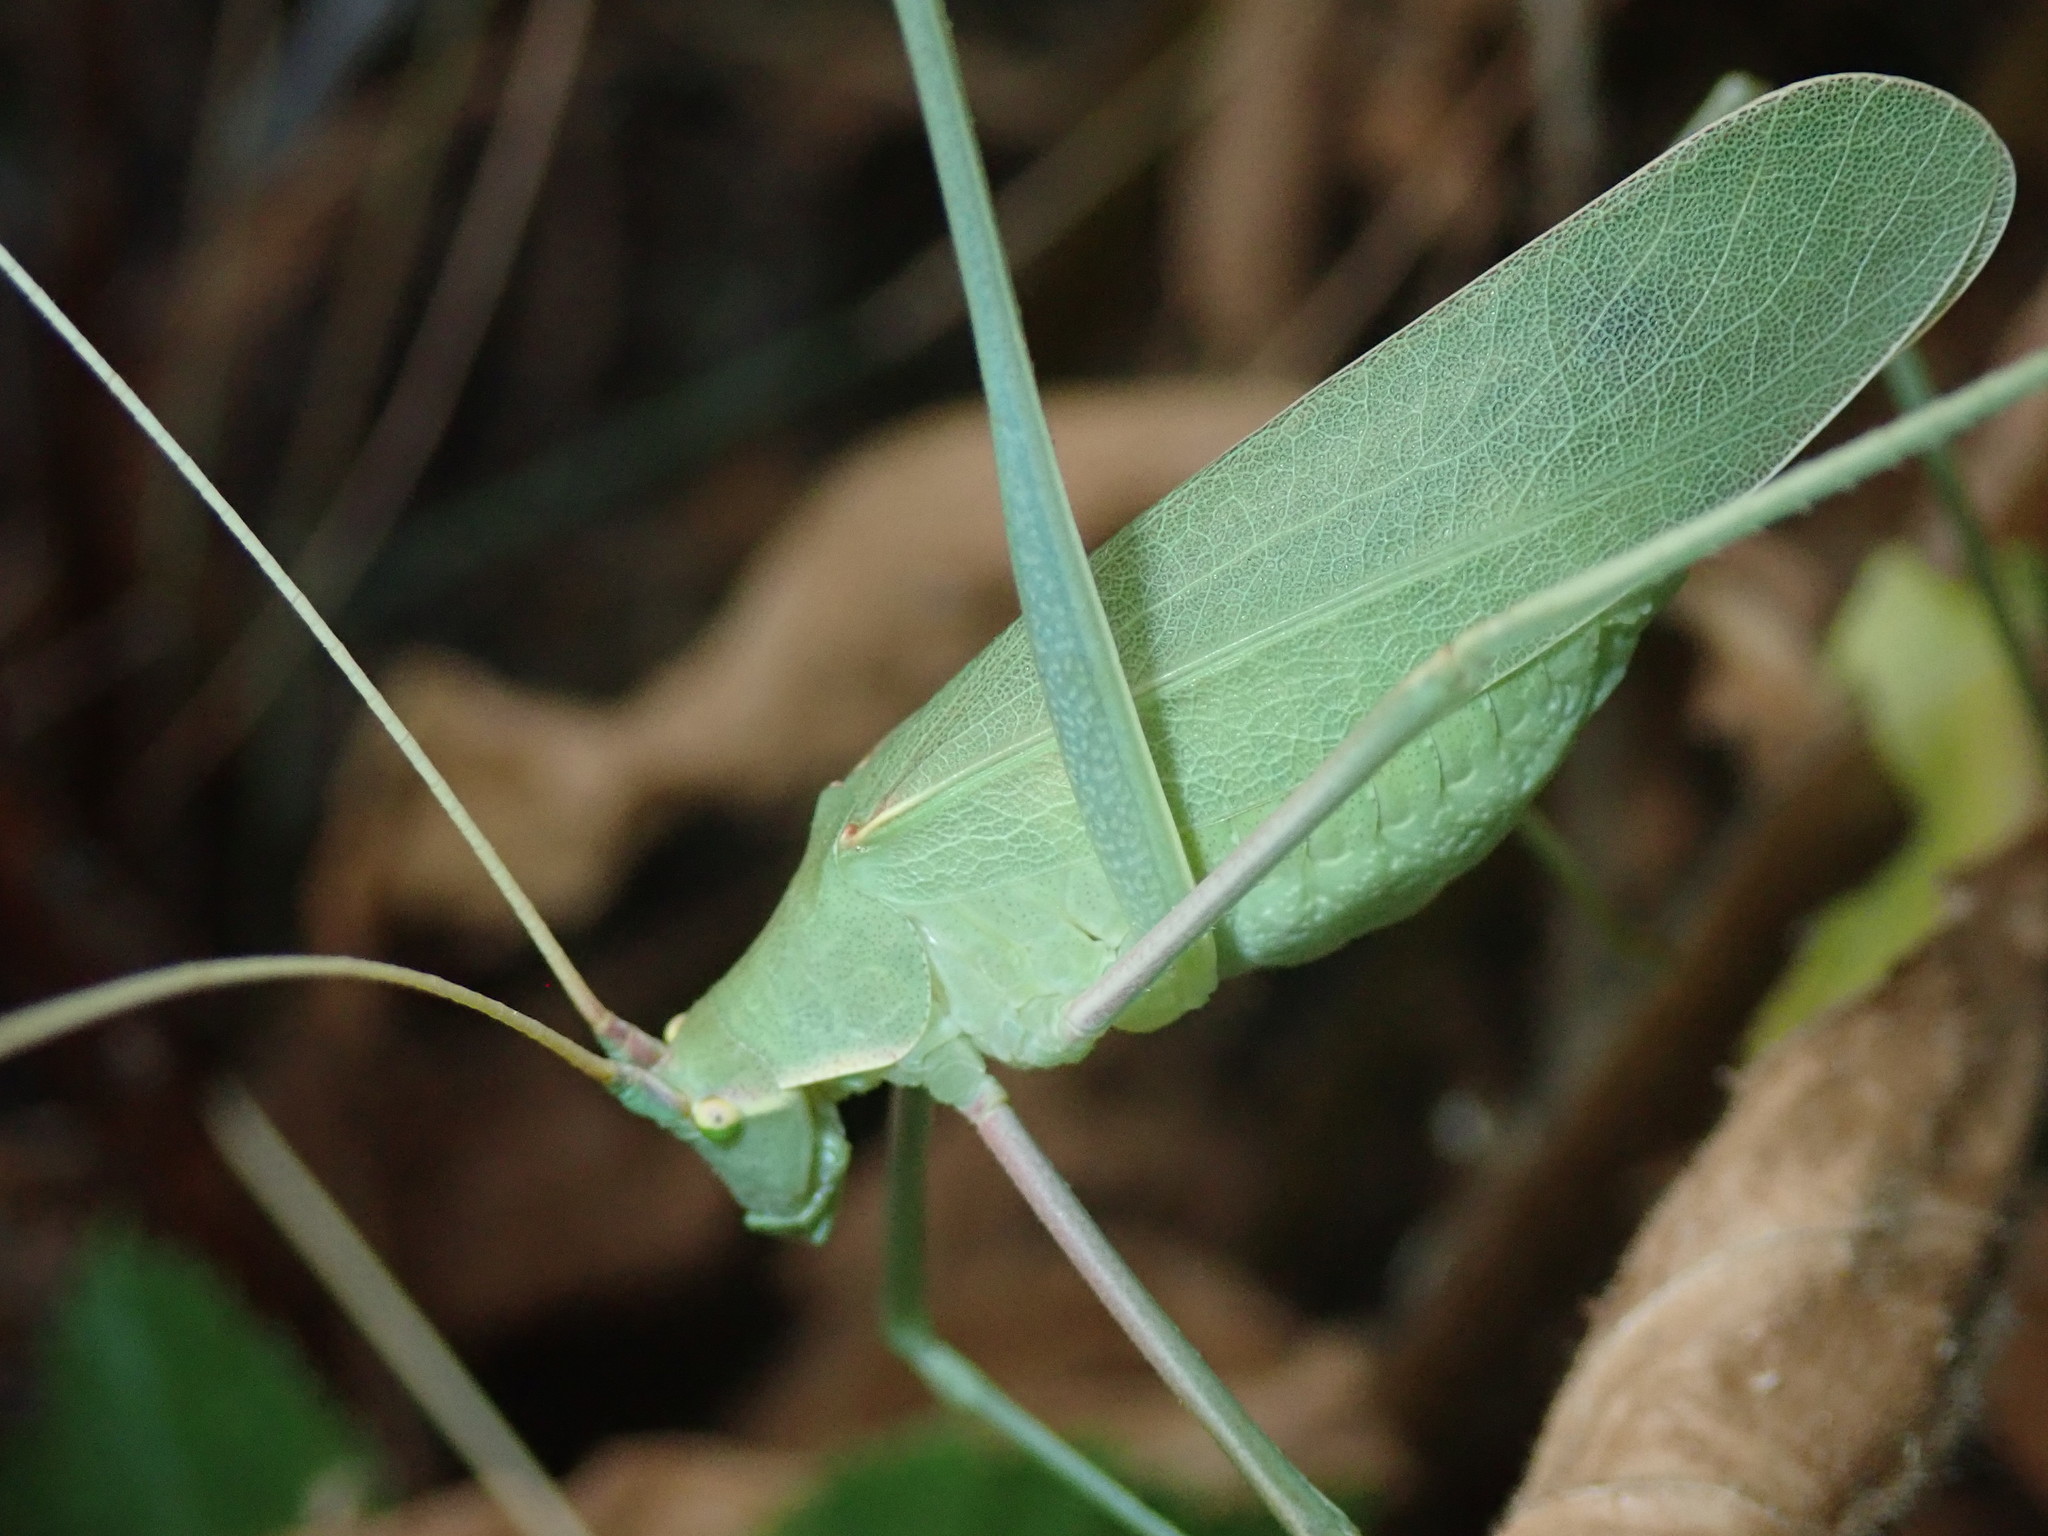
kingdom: Animalia
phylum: Arthropoda
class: Insecta
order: Orthoptera
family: Tettigoniidae
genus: Acrometopa
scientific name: Acrometopa macropoda
